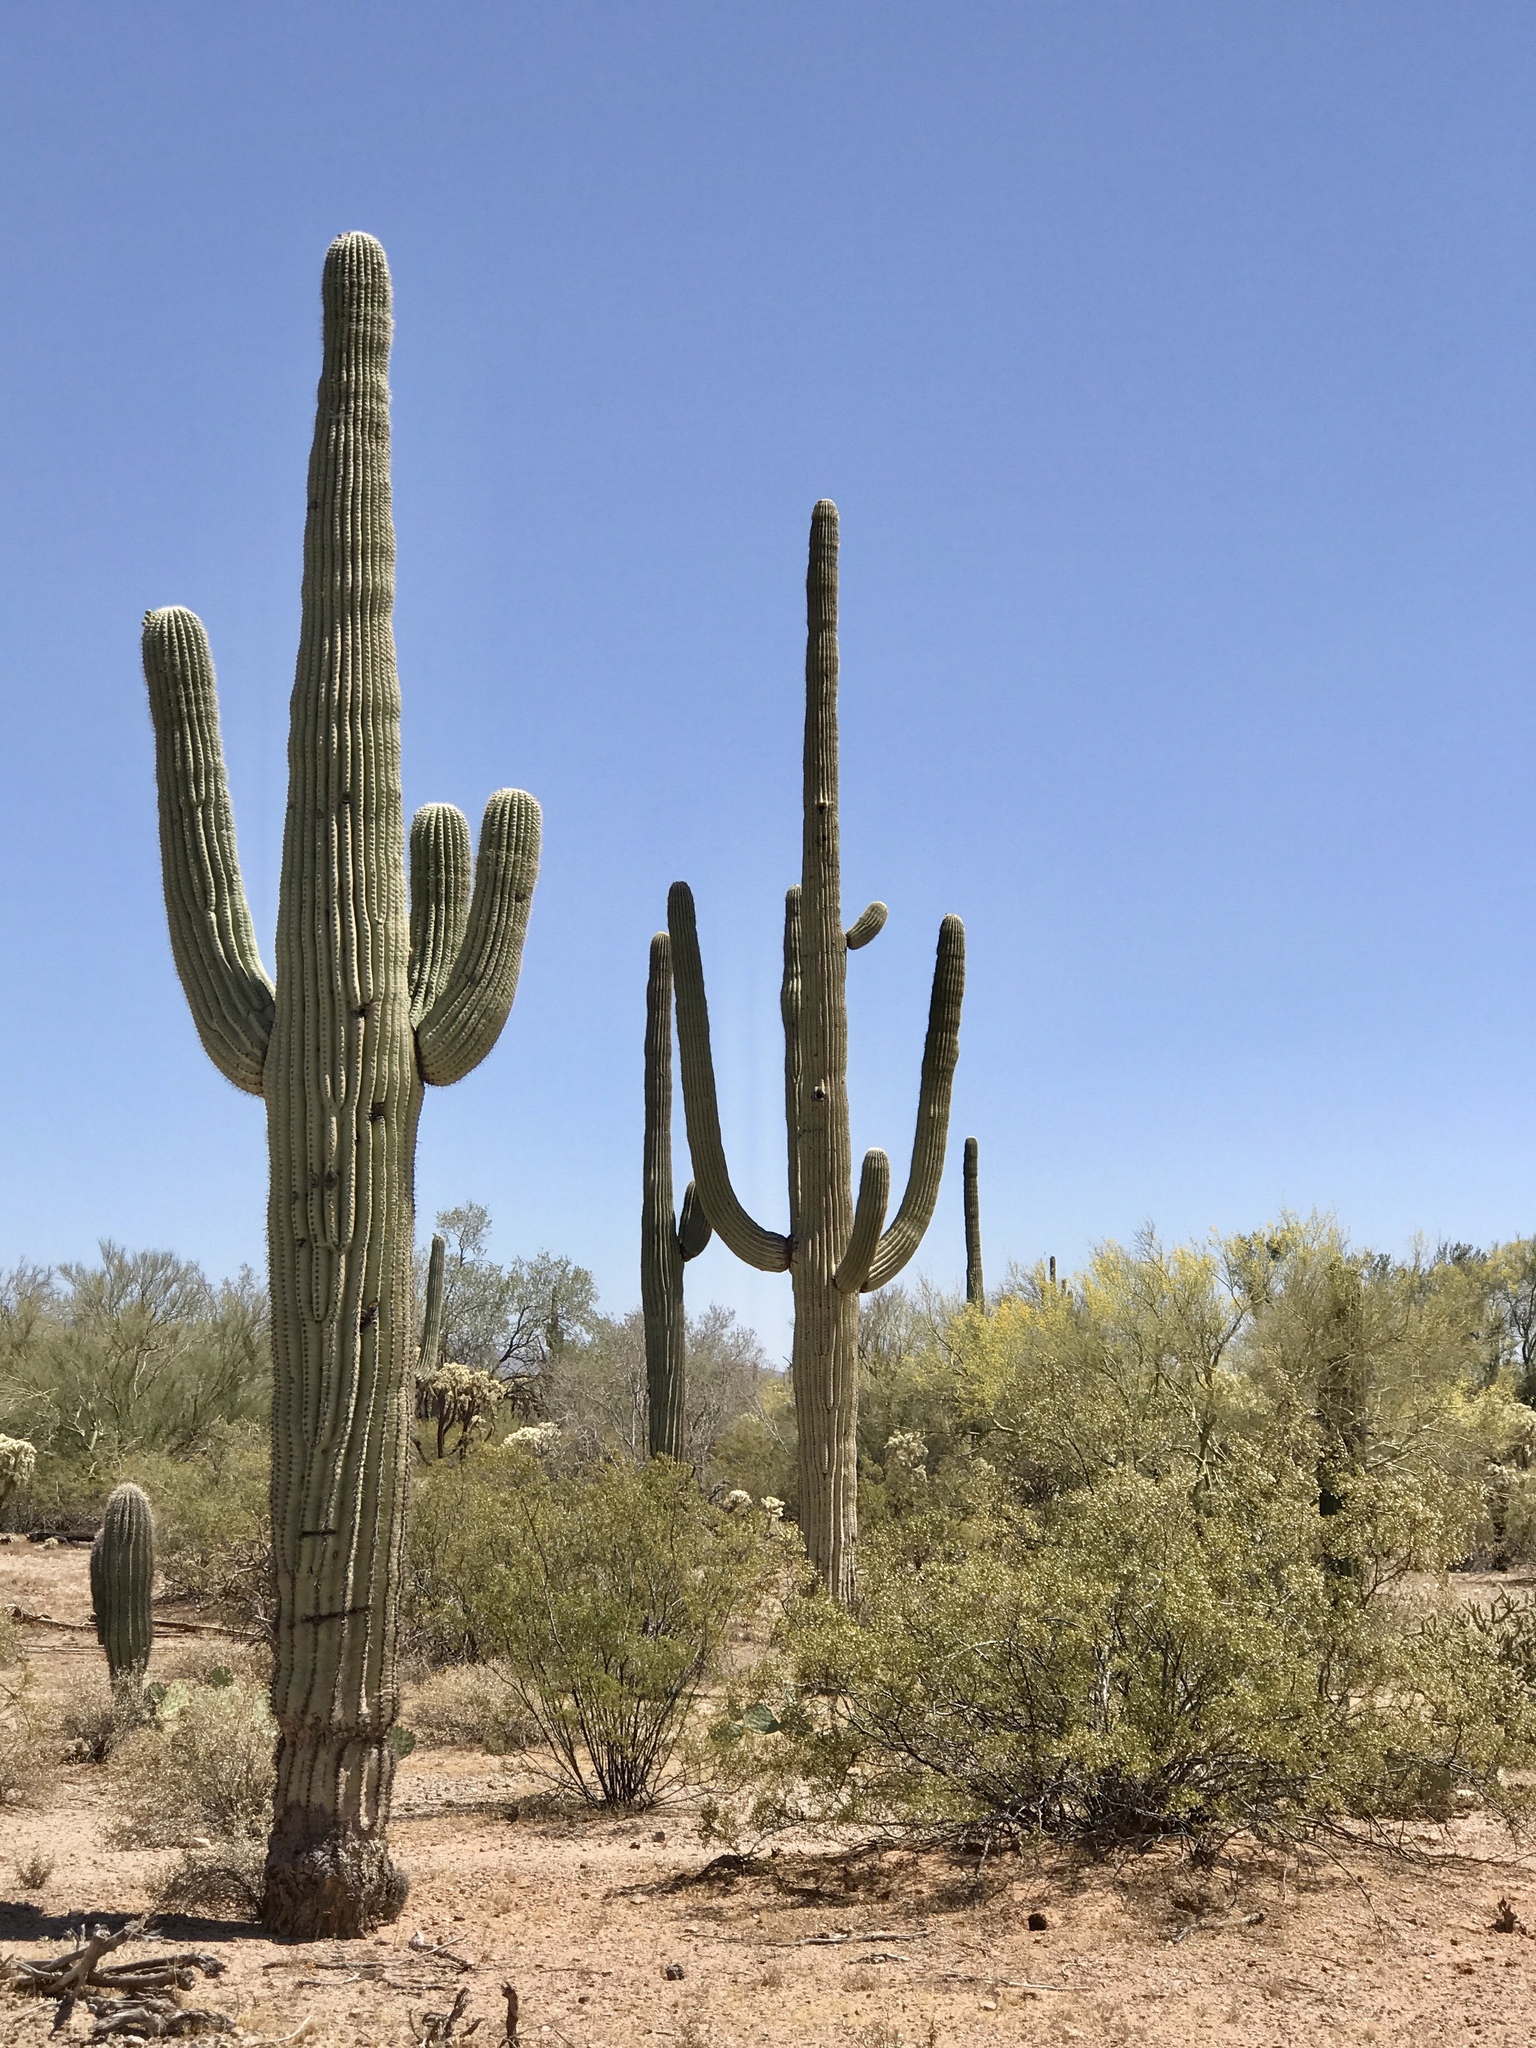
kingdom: Plantae
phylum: Tracheophyta
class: Magnoliopsida
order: Caryophyllales
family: Cactaceae
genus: Carnegiea
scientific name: Carnegiea gigantea
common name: Saguaro
